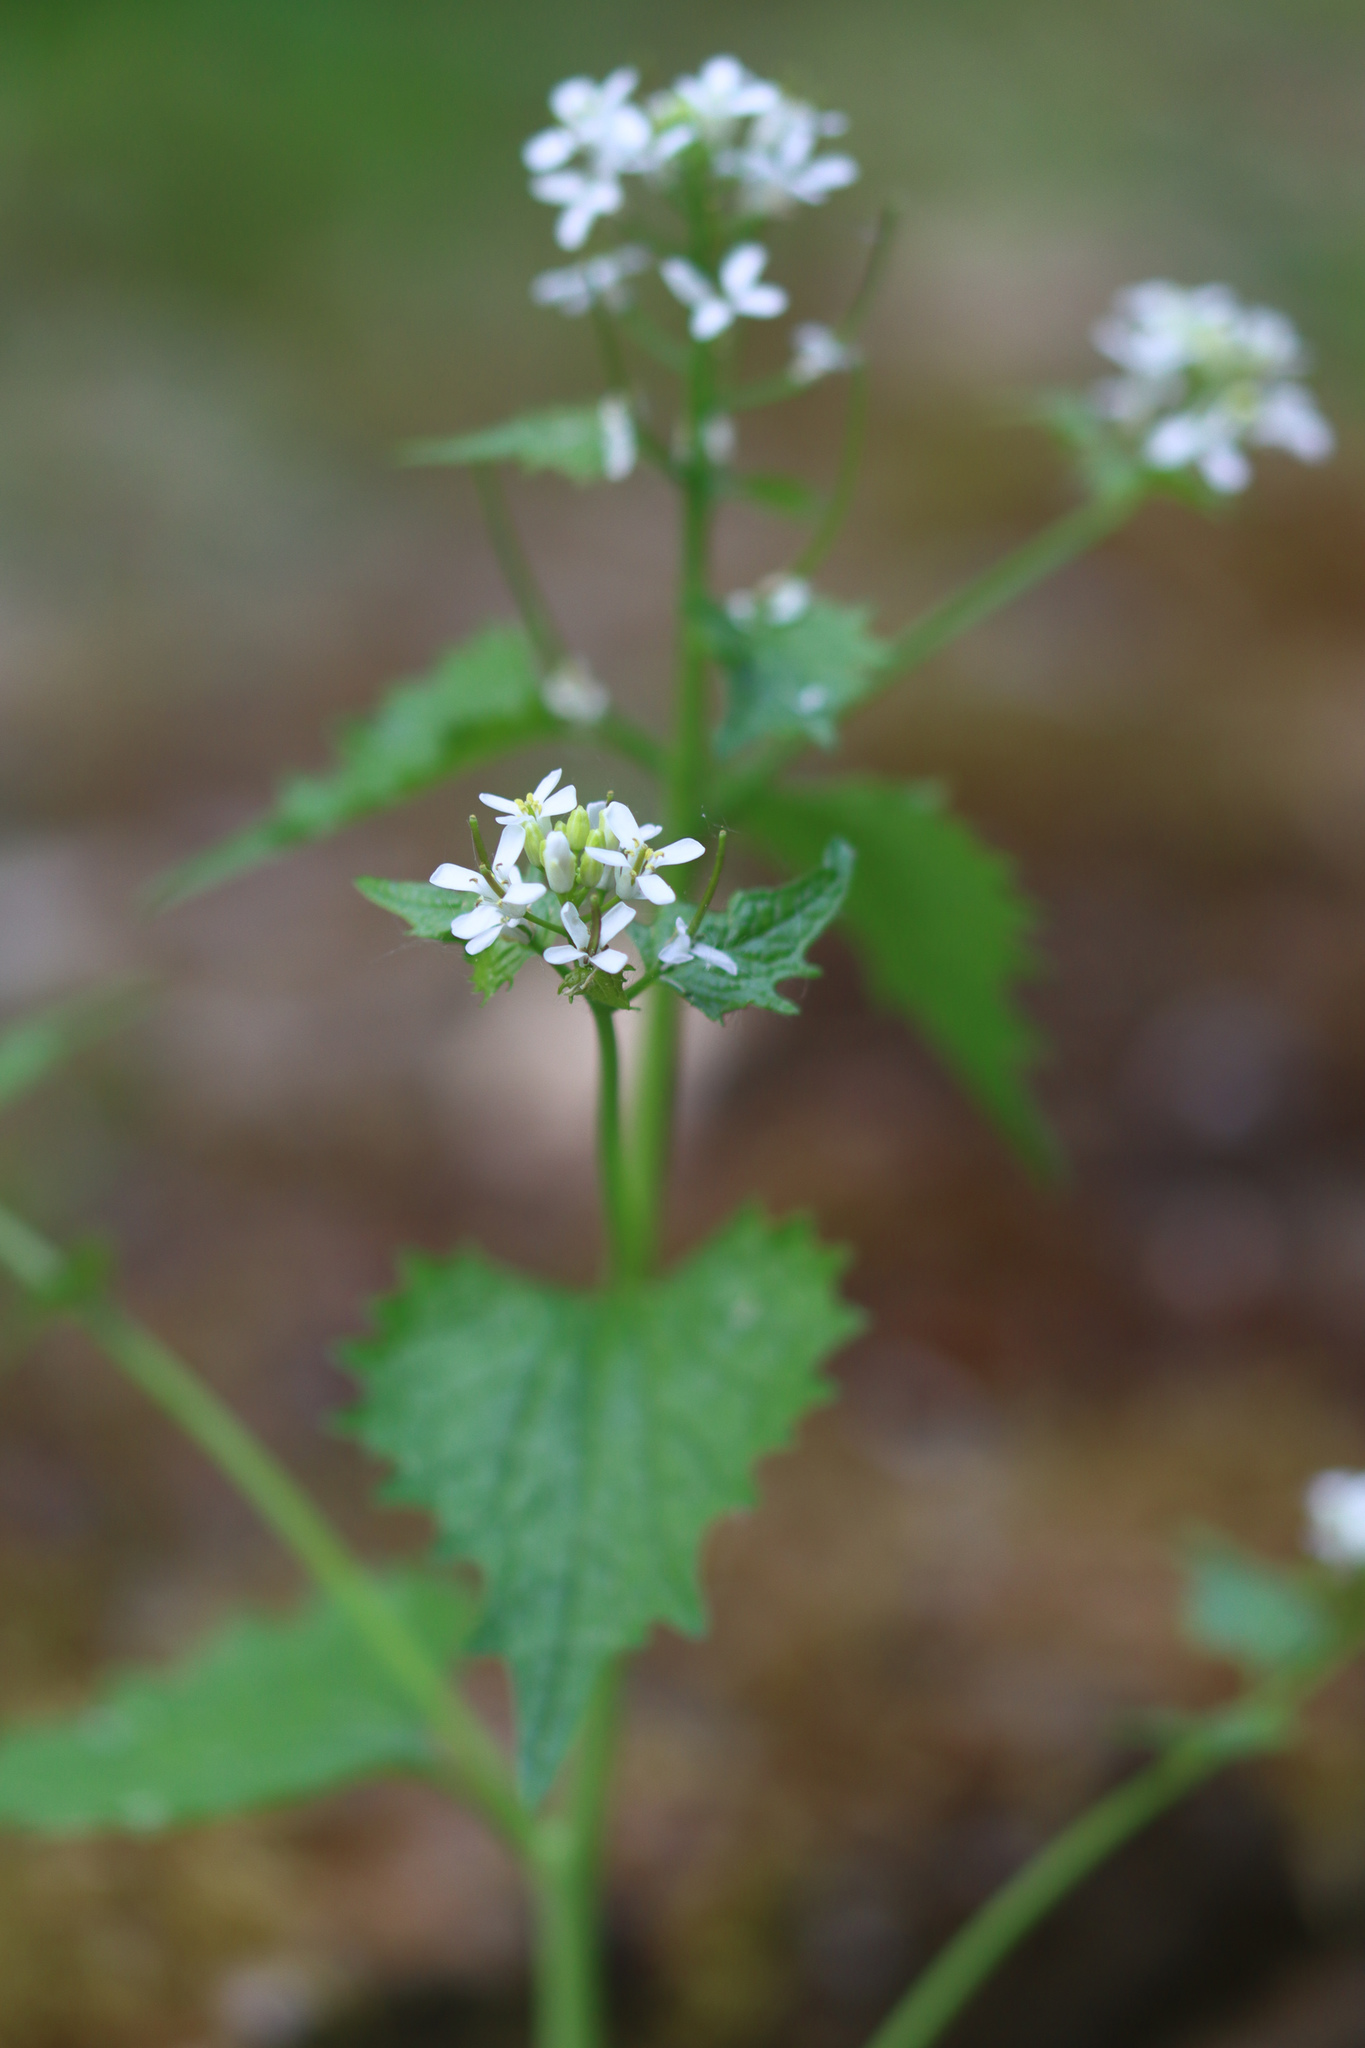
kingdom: Plantae
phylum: Tracheophyta
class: Magnoliopsida
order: Brassicales
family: Brassicaceae
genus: Alliaria
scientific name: Alliaria petiolata
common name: Garlic mustard
